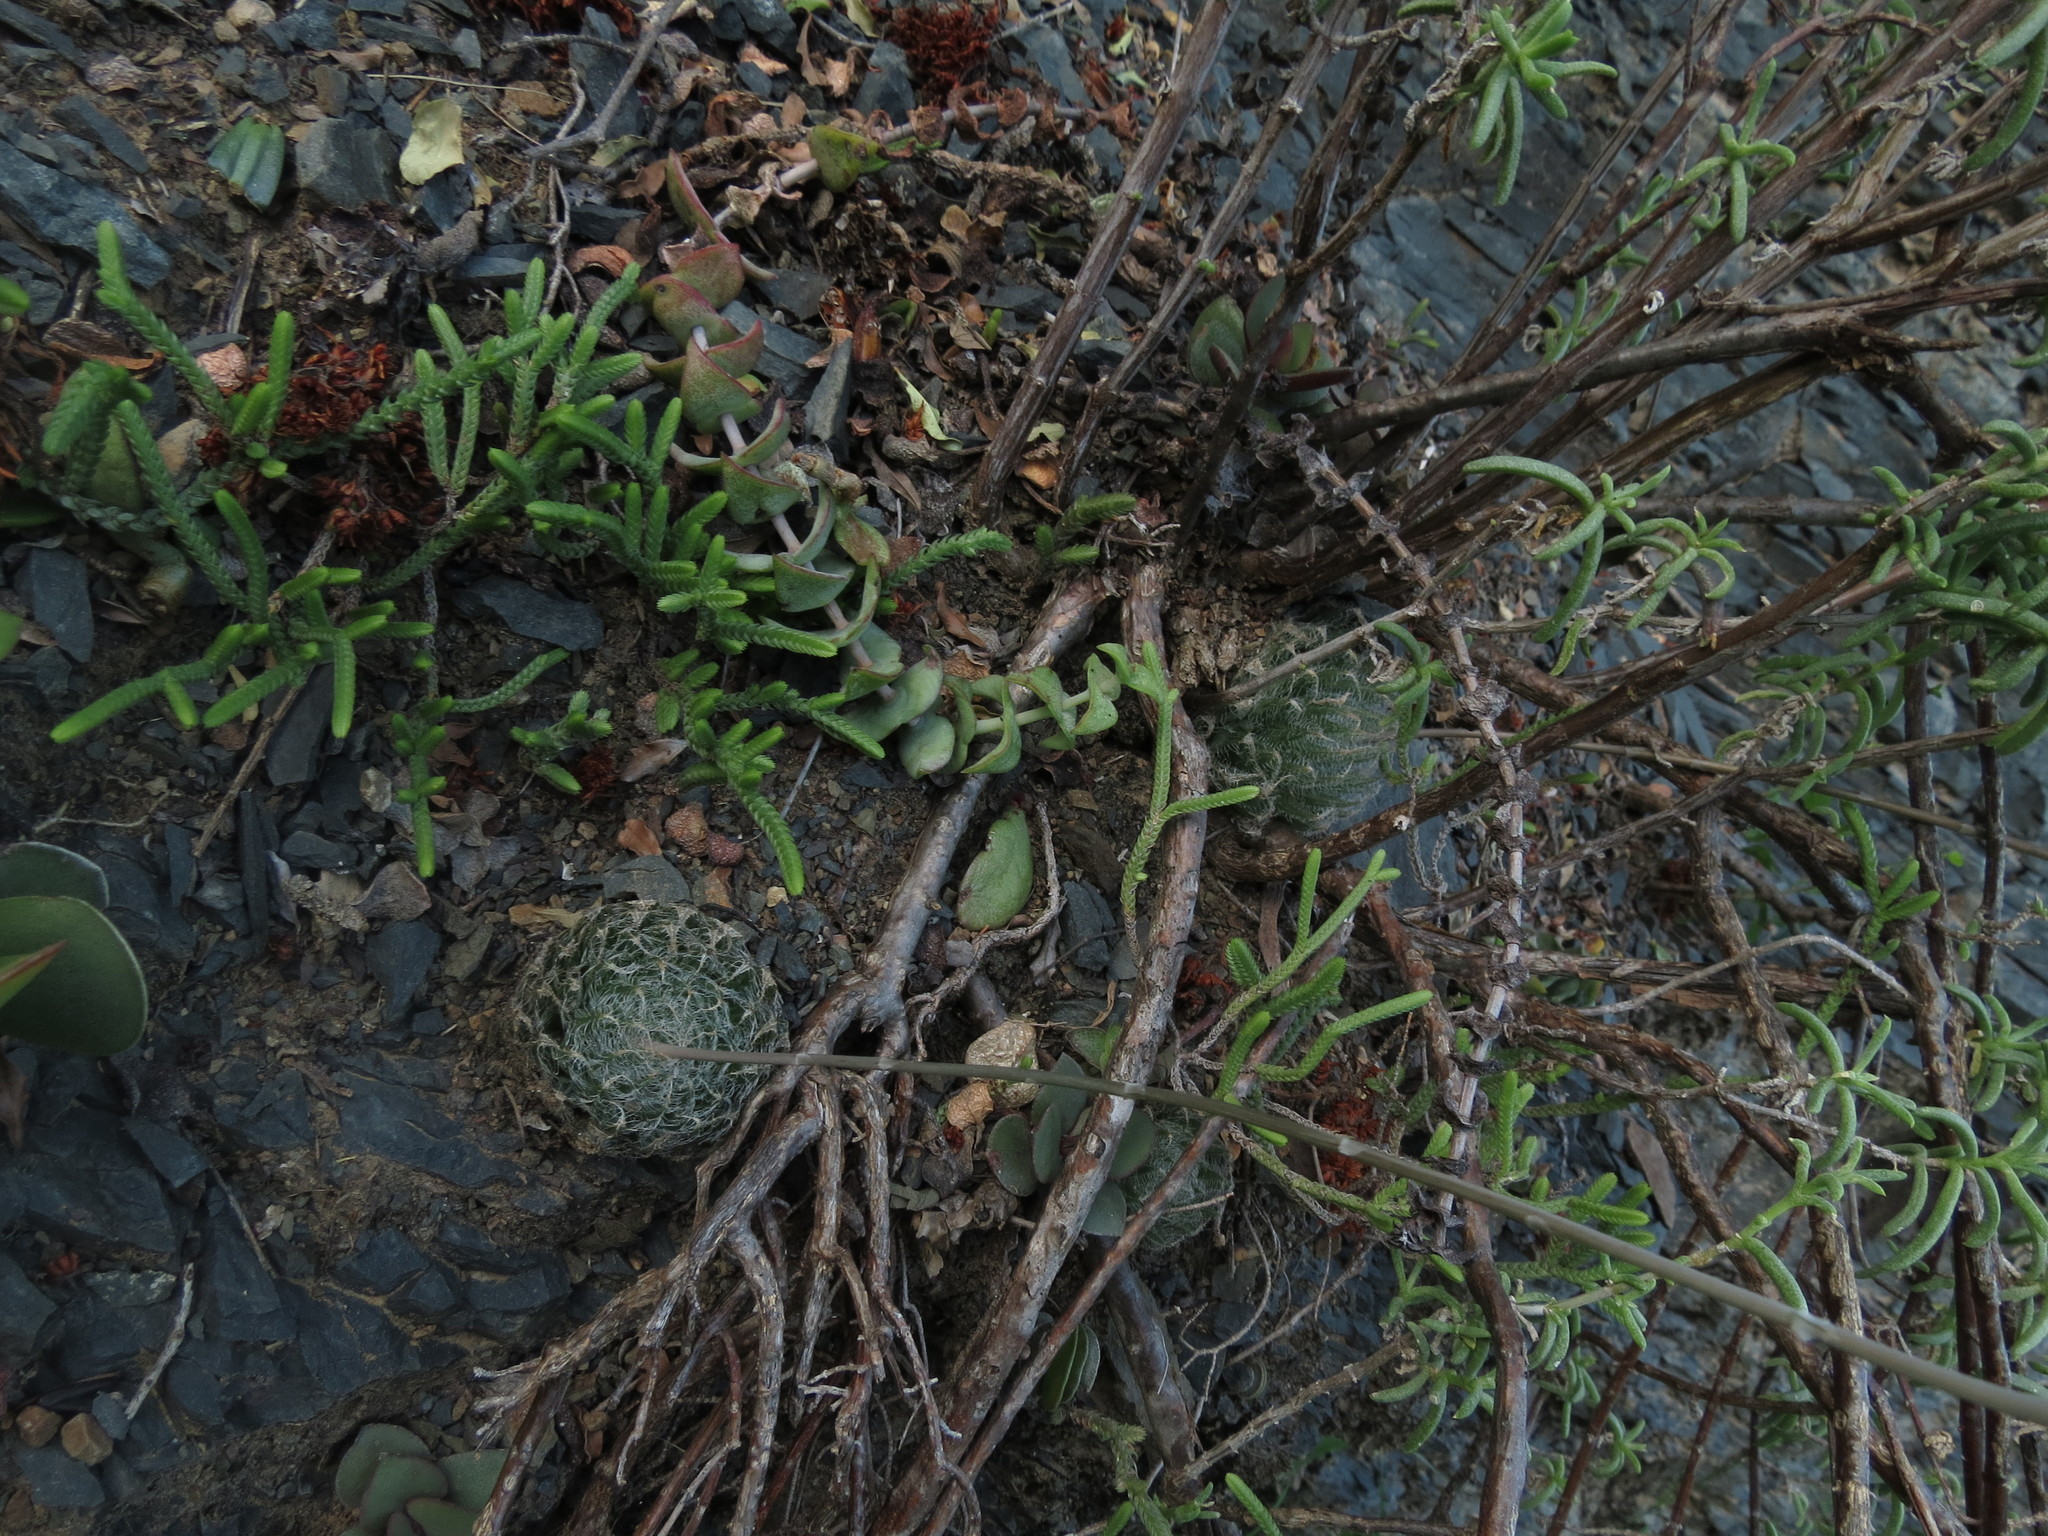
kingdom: Plantae
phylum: Tracheophyta
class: Liliopsida
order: Asparagales
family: Asphodelaceae
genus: Haworthia
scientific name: Haworthia bolusii
